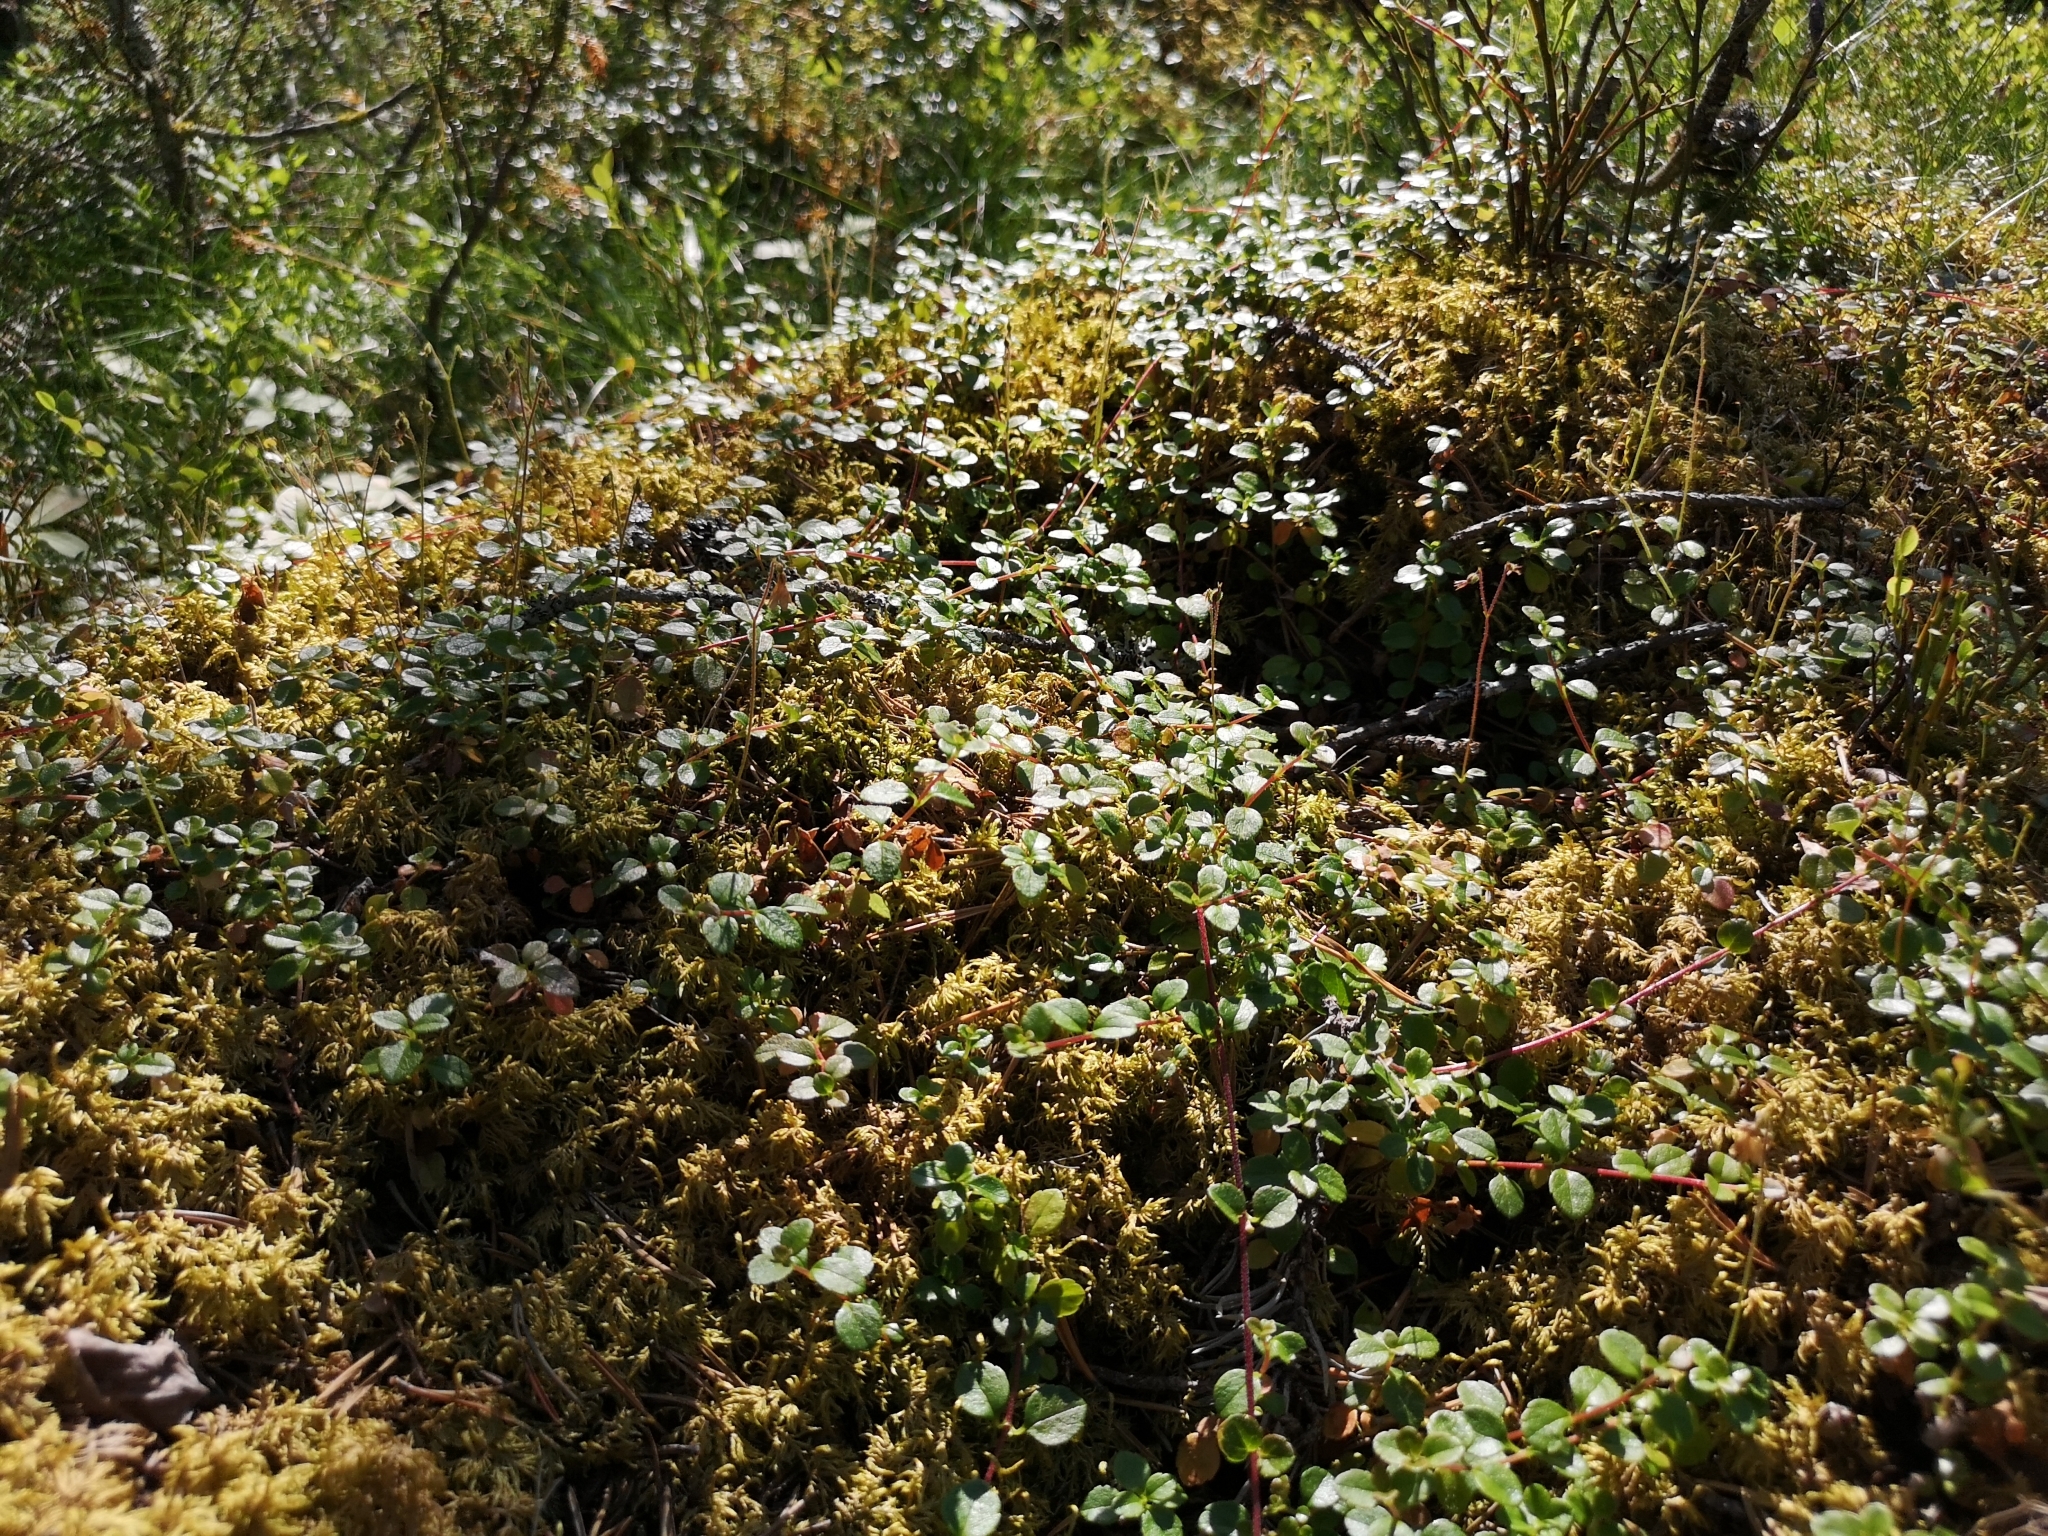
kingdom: Plantae
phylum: Tracheophyta
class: Magnoliopsida
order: Dipsacales
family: Caprifoliaceae
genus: Linnaea
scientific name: Linnaea borealis
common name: Twinflower
